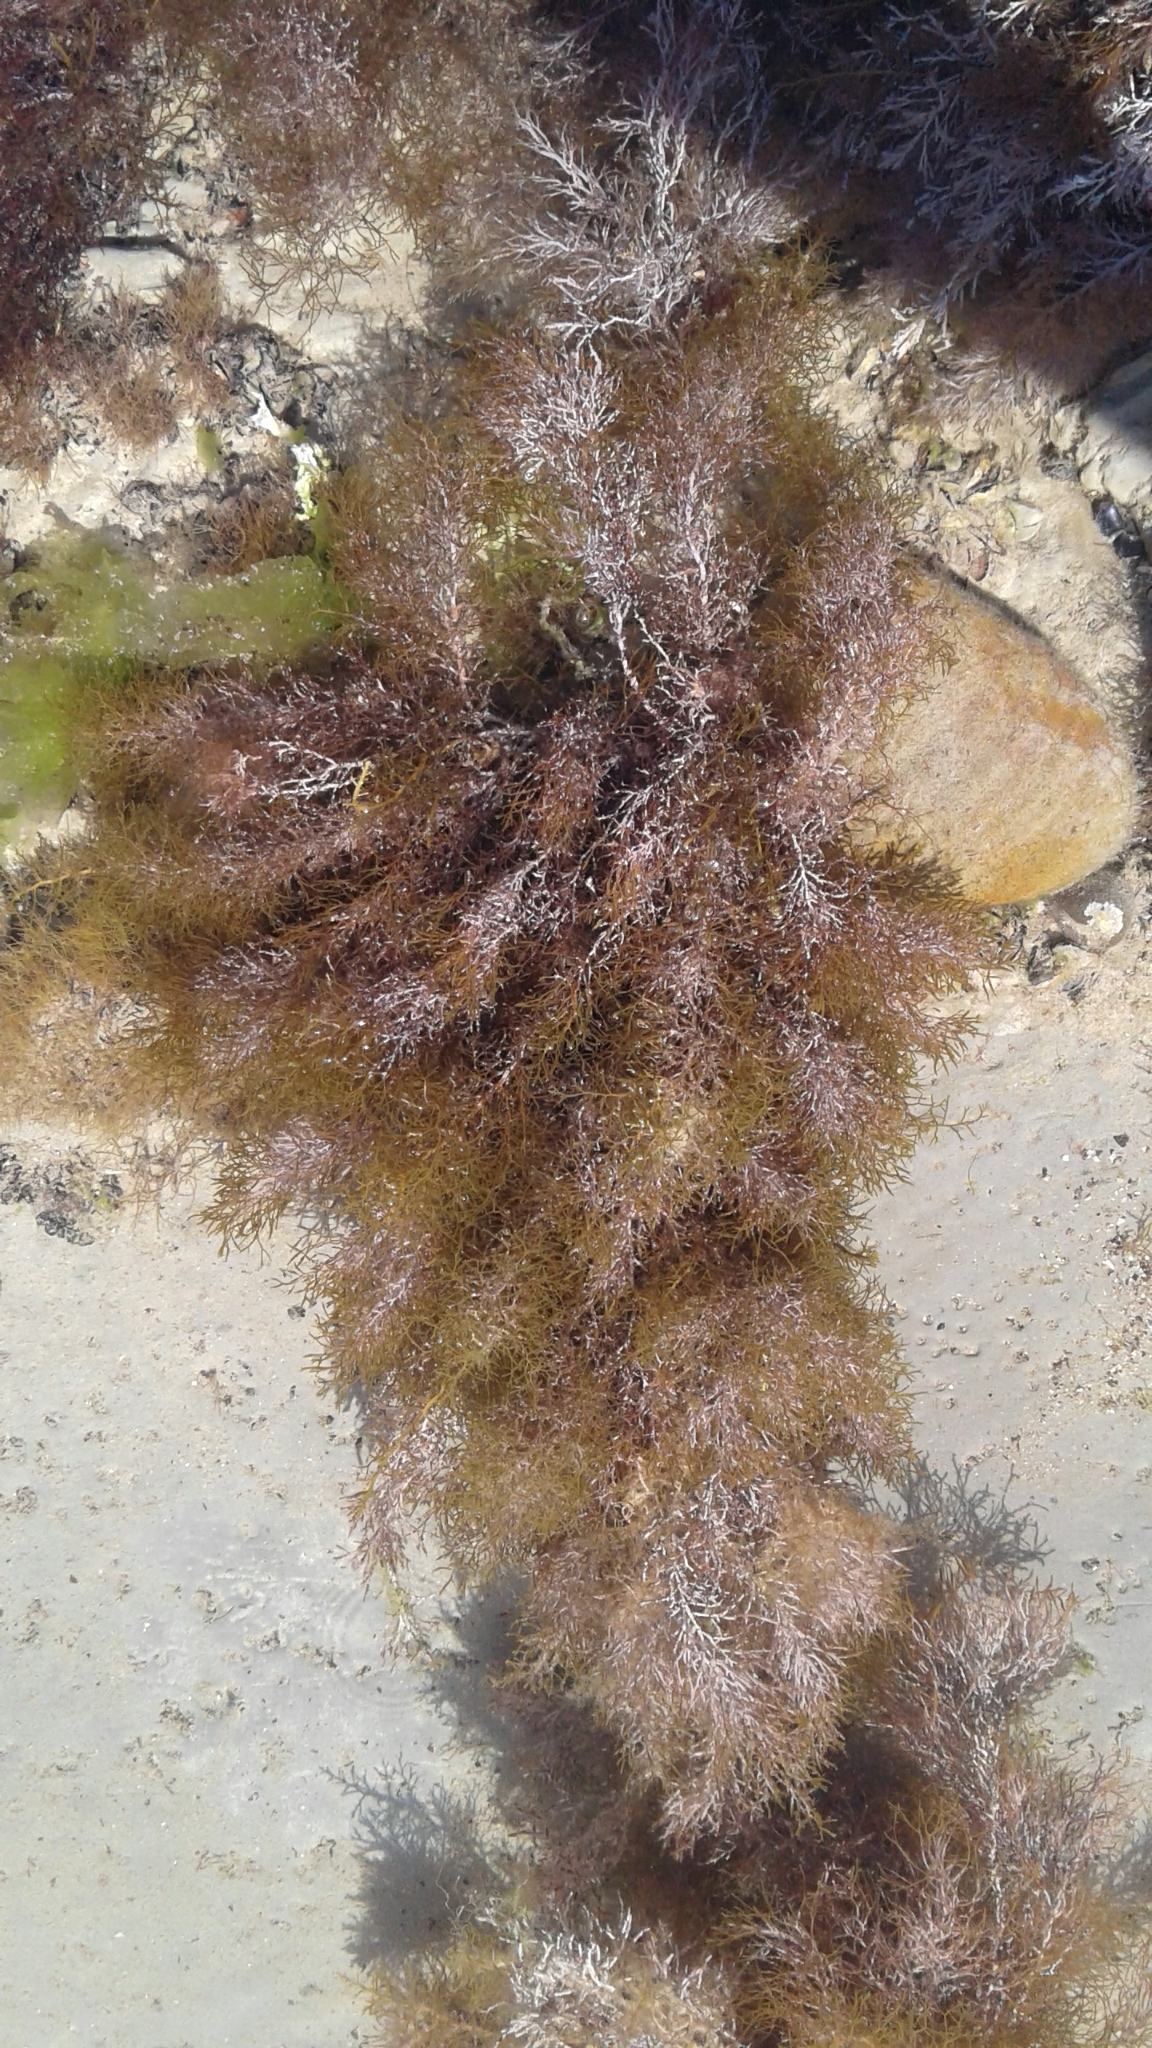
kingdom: Chromista
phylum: Ochrophyta
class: Phaeophyceae
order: Fucales
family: Sargassaceae
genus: Cystoseira
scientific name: Cystoseira Gongolaria barbata
